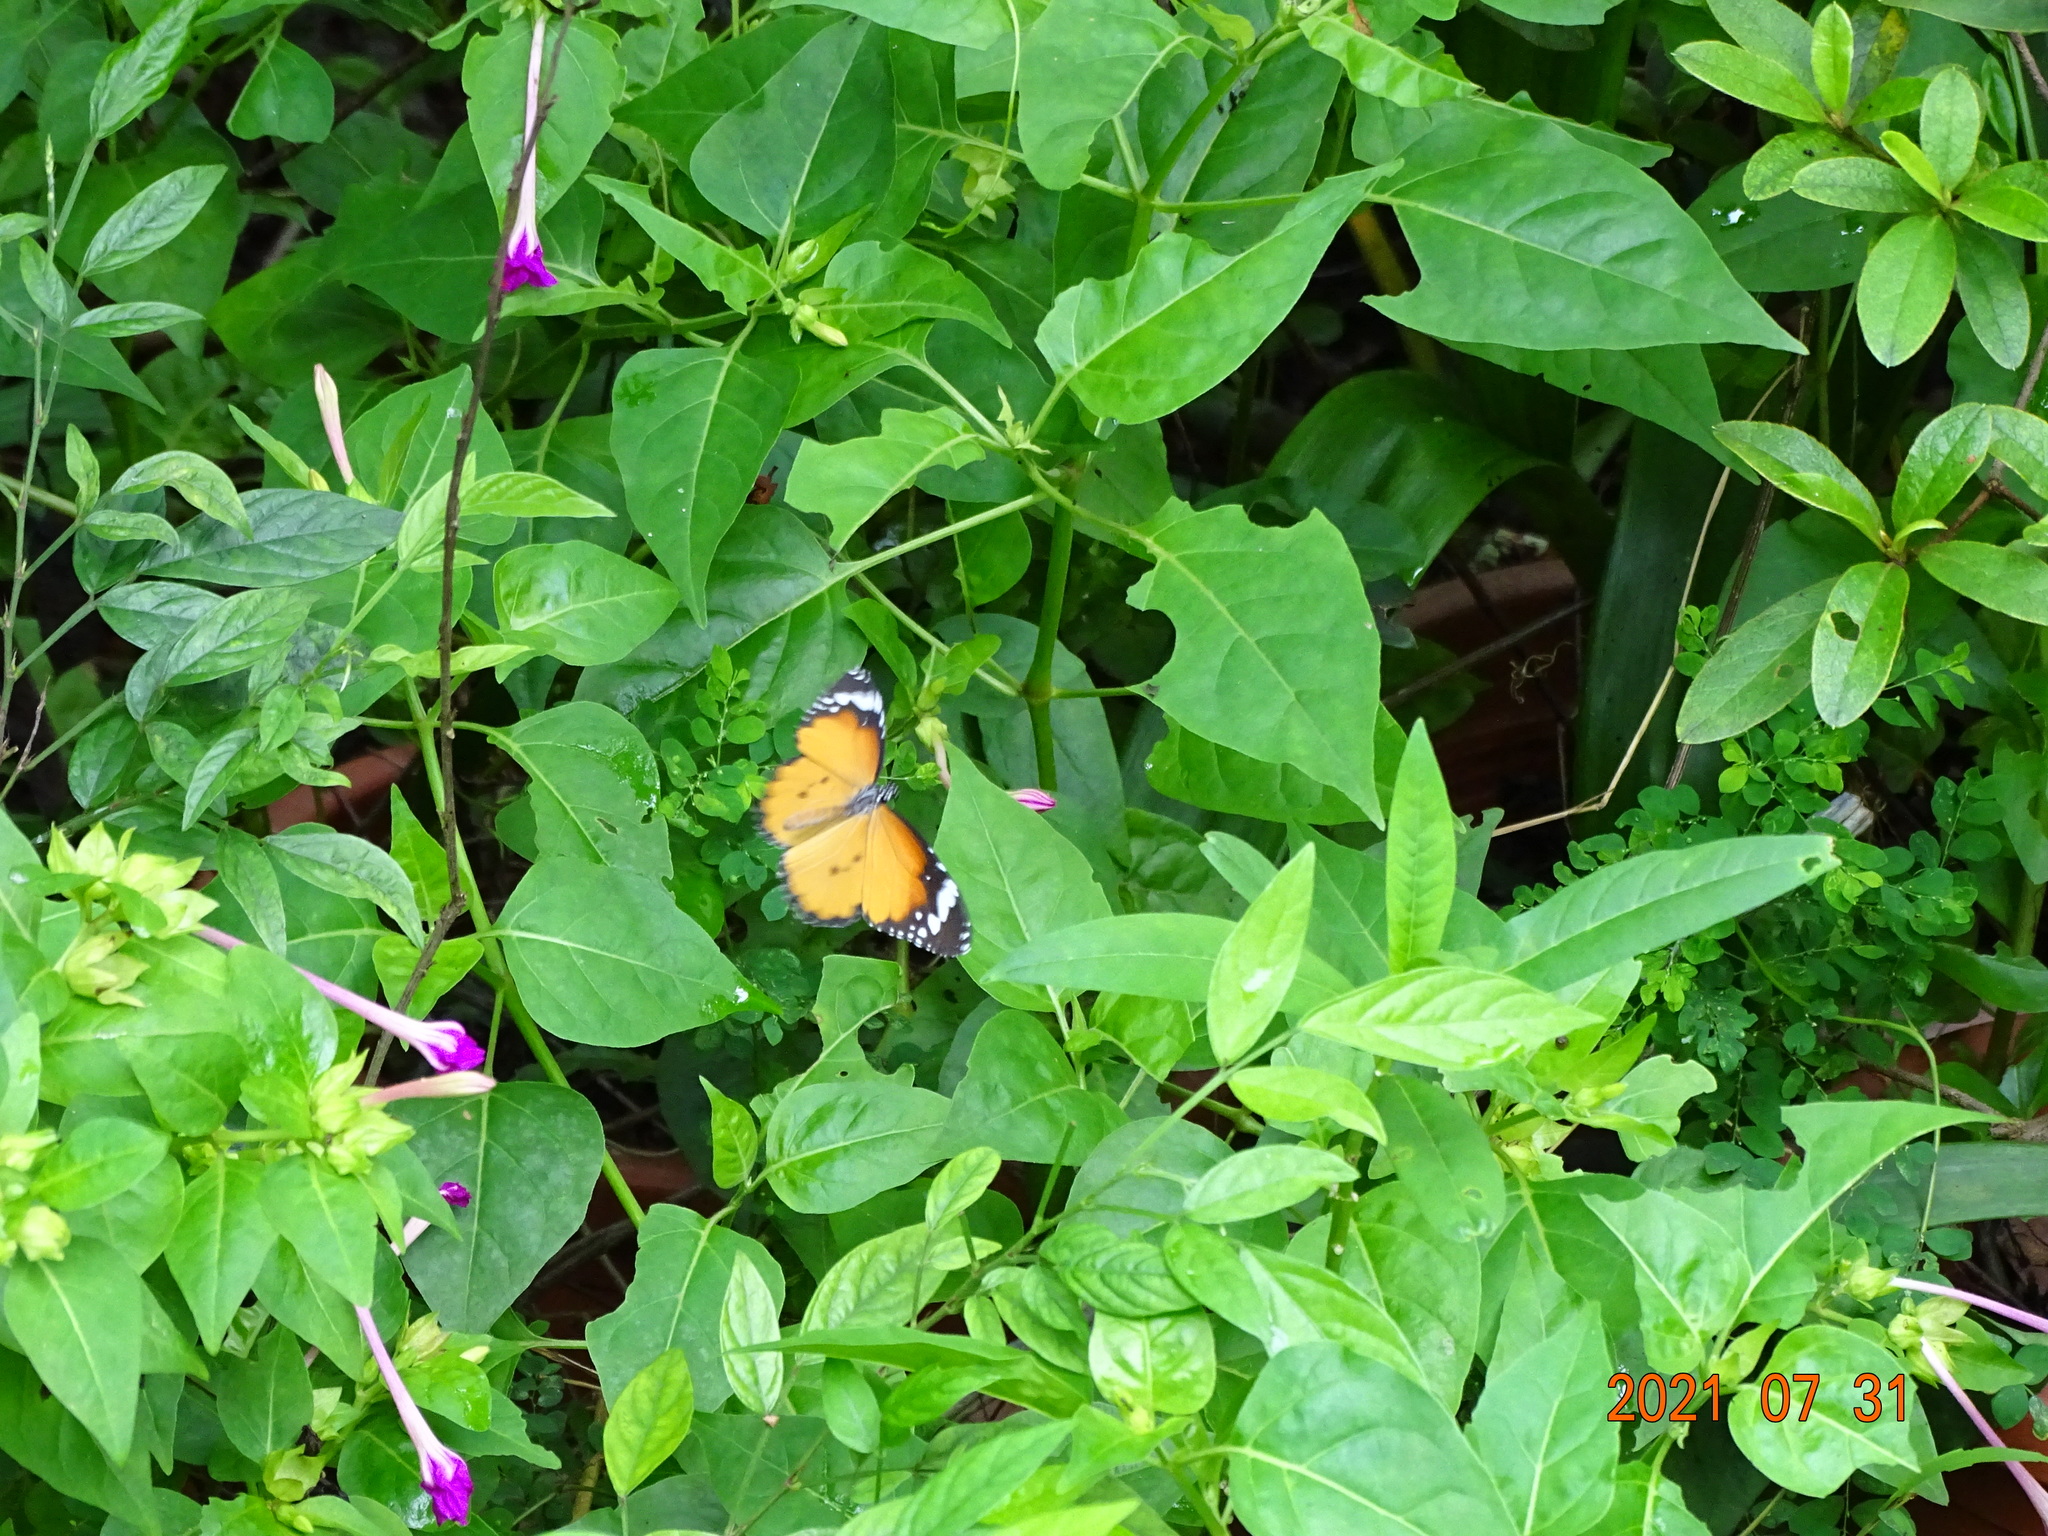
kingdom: Animalia
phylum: Arthropoda
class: Insecta
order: Lepidoptera
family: Nymphalidae
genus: Danaus
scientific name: Danaus chrysippus
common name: Plain tiger
